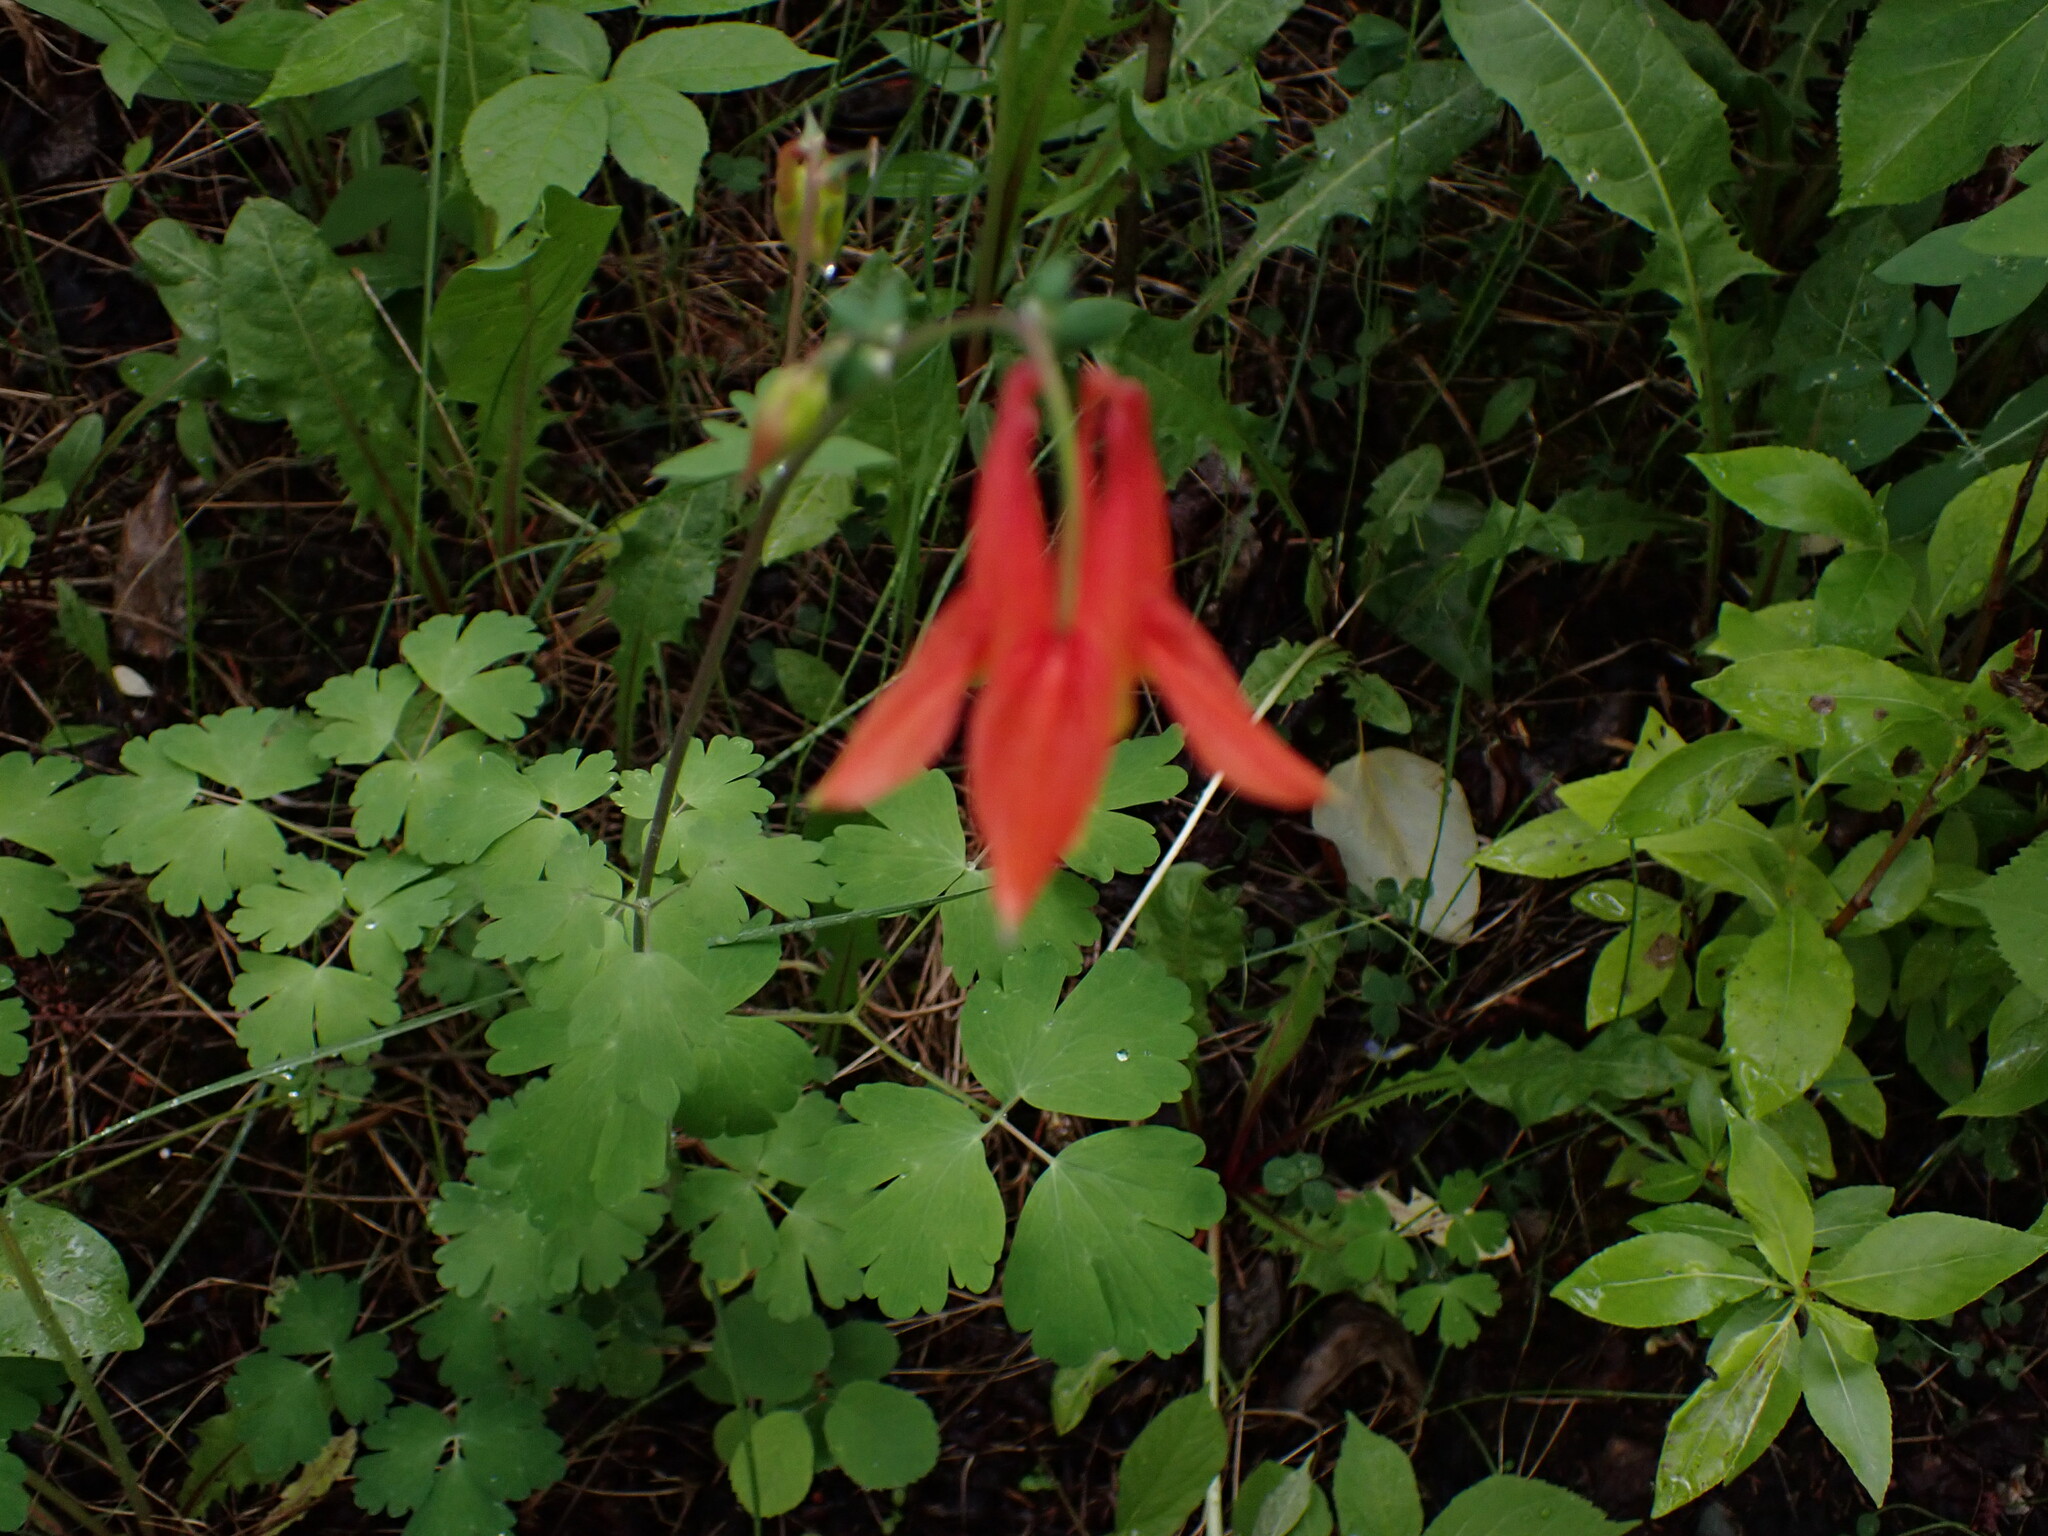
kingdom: Plantae
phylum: Tracheophyta
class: Magnoliopsida
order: Ranunculales
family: Ranunculaceae
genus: Aquilegia
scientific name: Aquilegia formosa
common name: Sitka columbine
